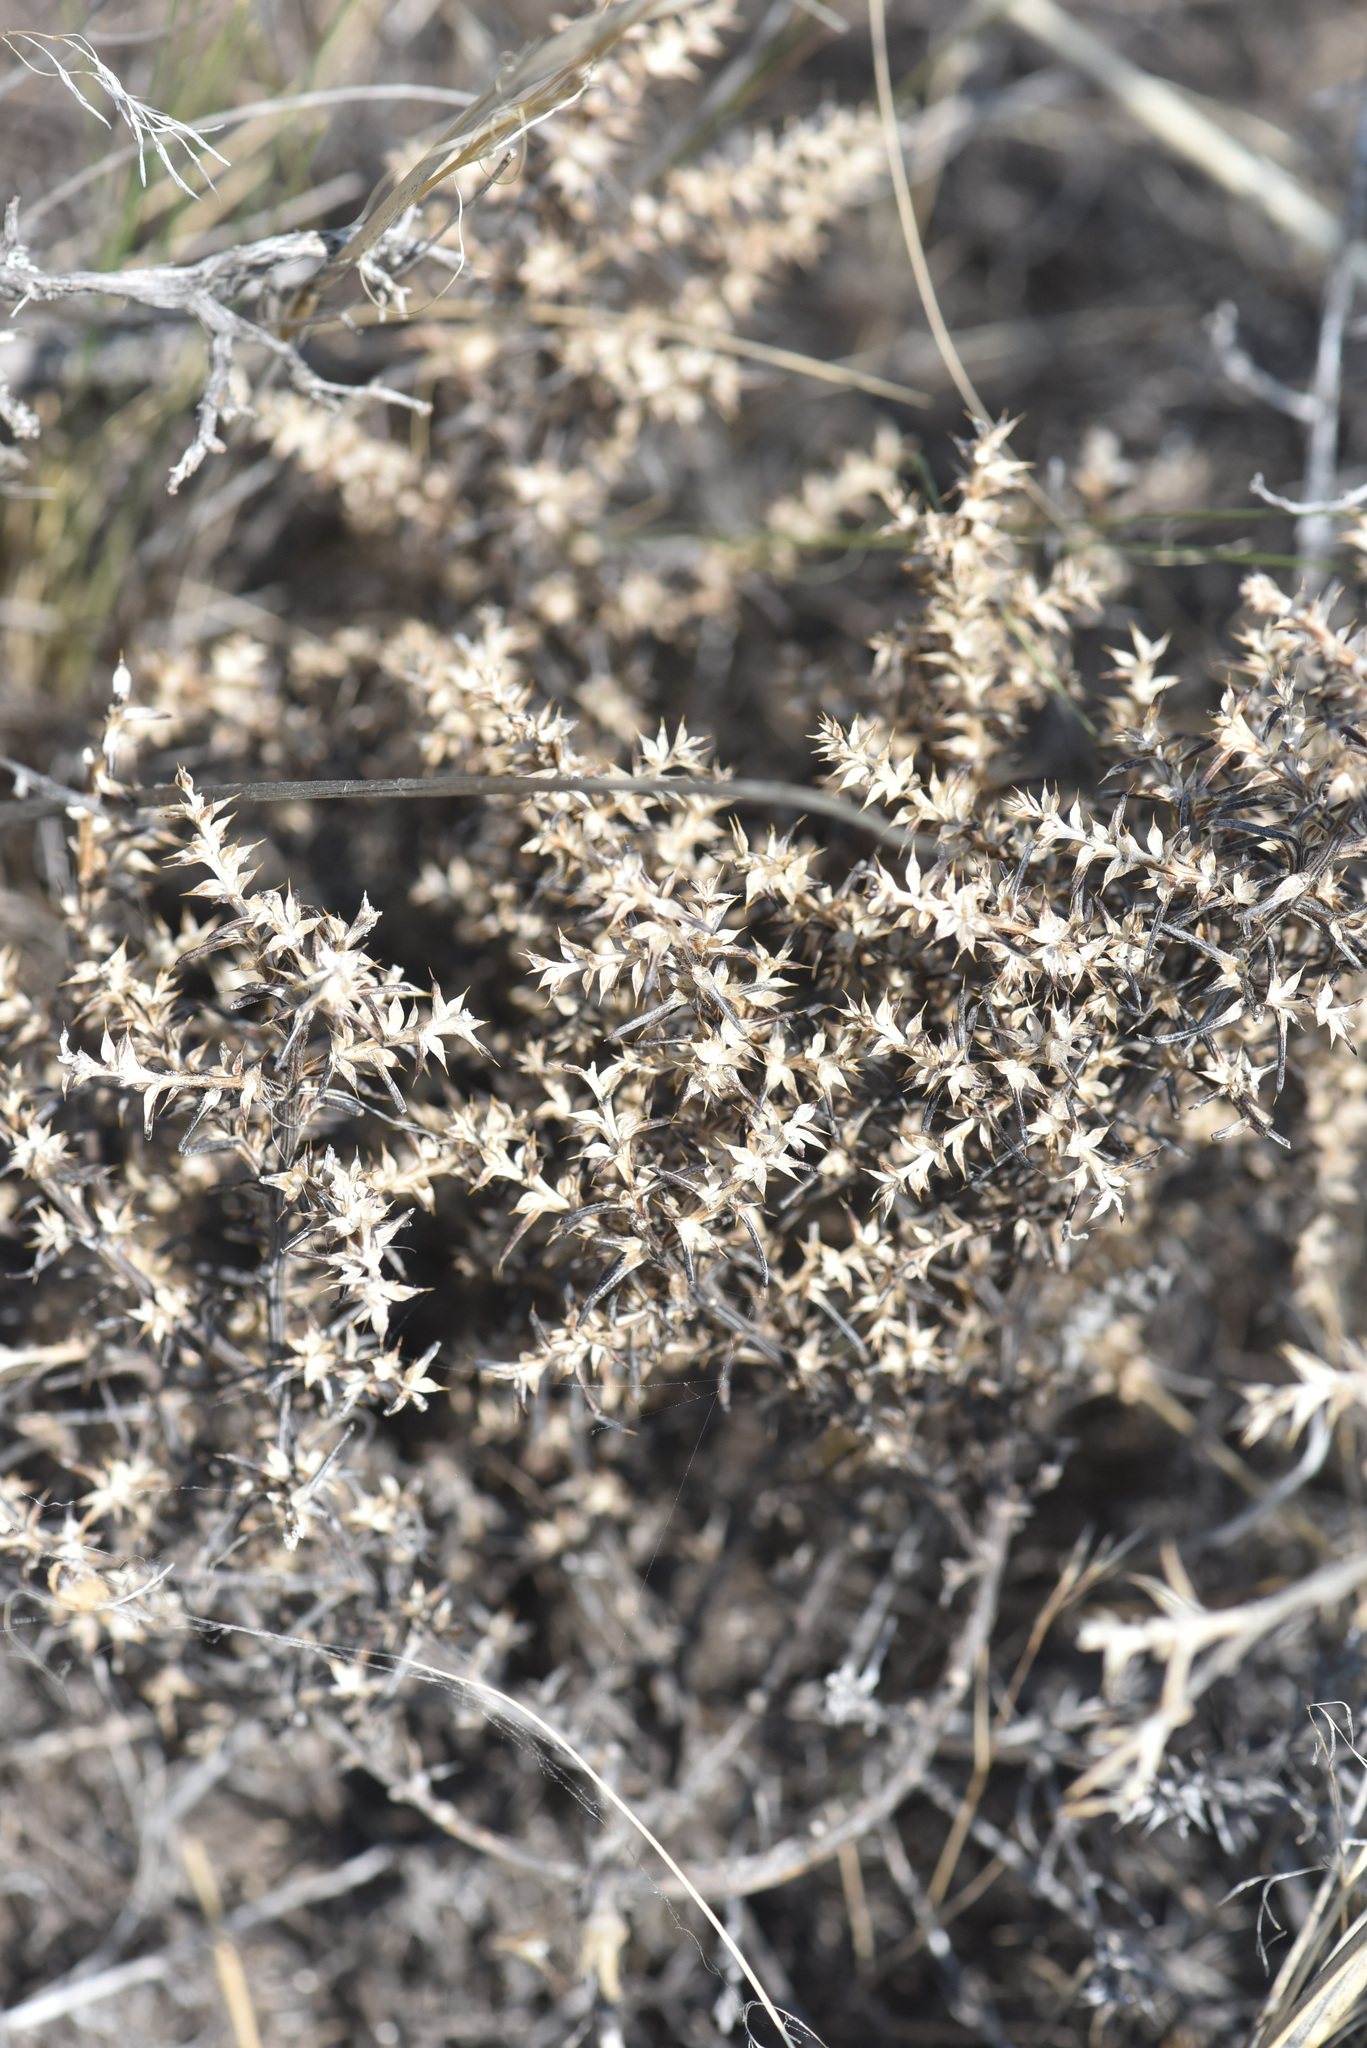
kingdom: Plantae
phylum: Tracheophyta
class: Magnoliopsida
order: Caryophyllales
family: Amaranthaceae
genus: Salsola
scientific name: Salsola tragus
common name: Prickly russian thistle
